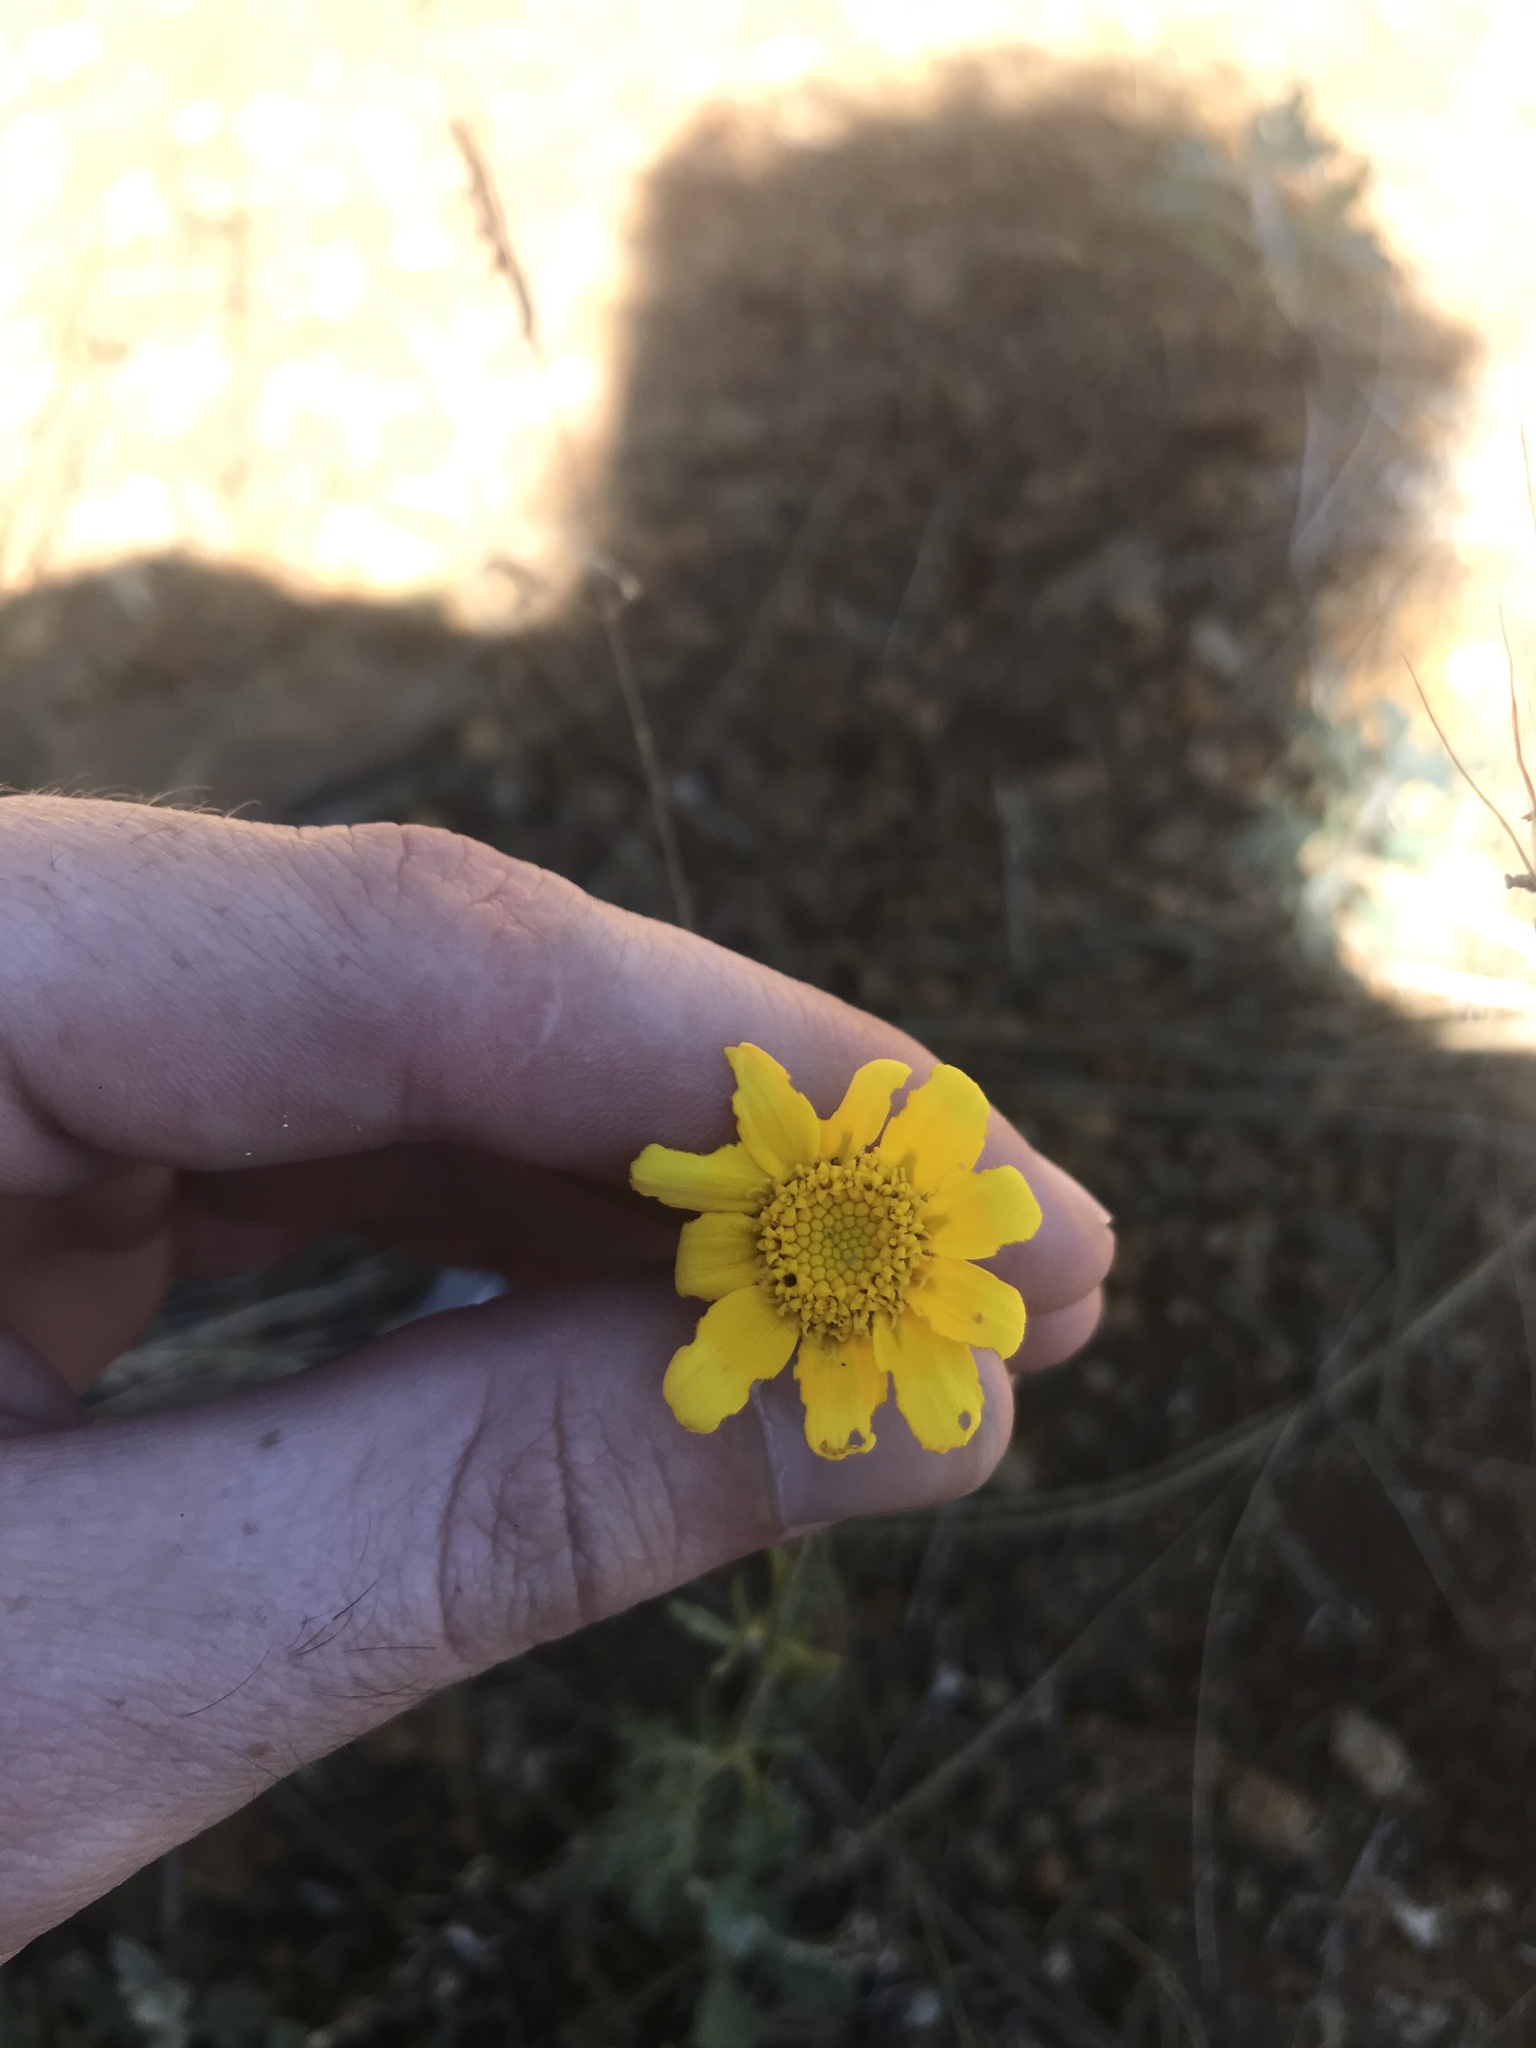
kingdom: Plantae
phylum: Tracheophyta
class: Magnoliopsida
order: Asterales
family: Asteraceae
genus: Eriophyllum
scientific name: Eriophyllum lanatum
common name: Common woolly-sunflower
